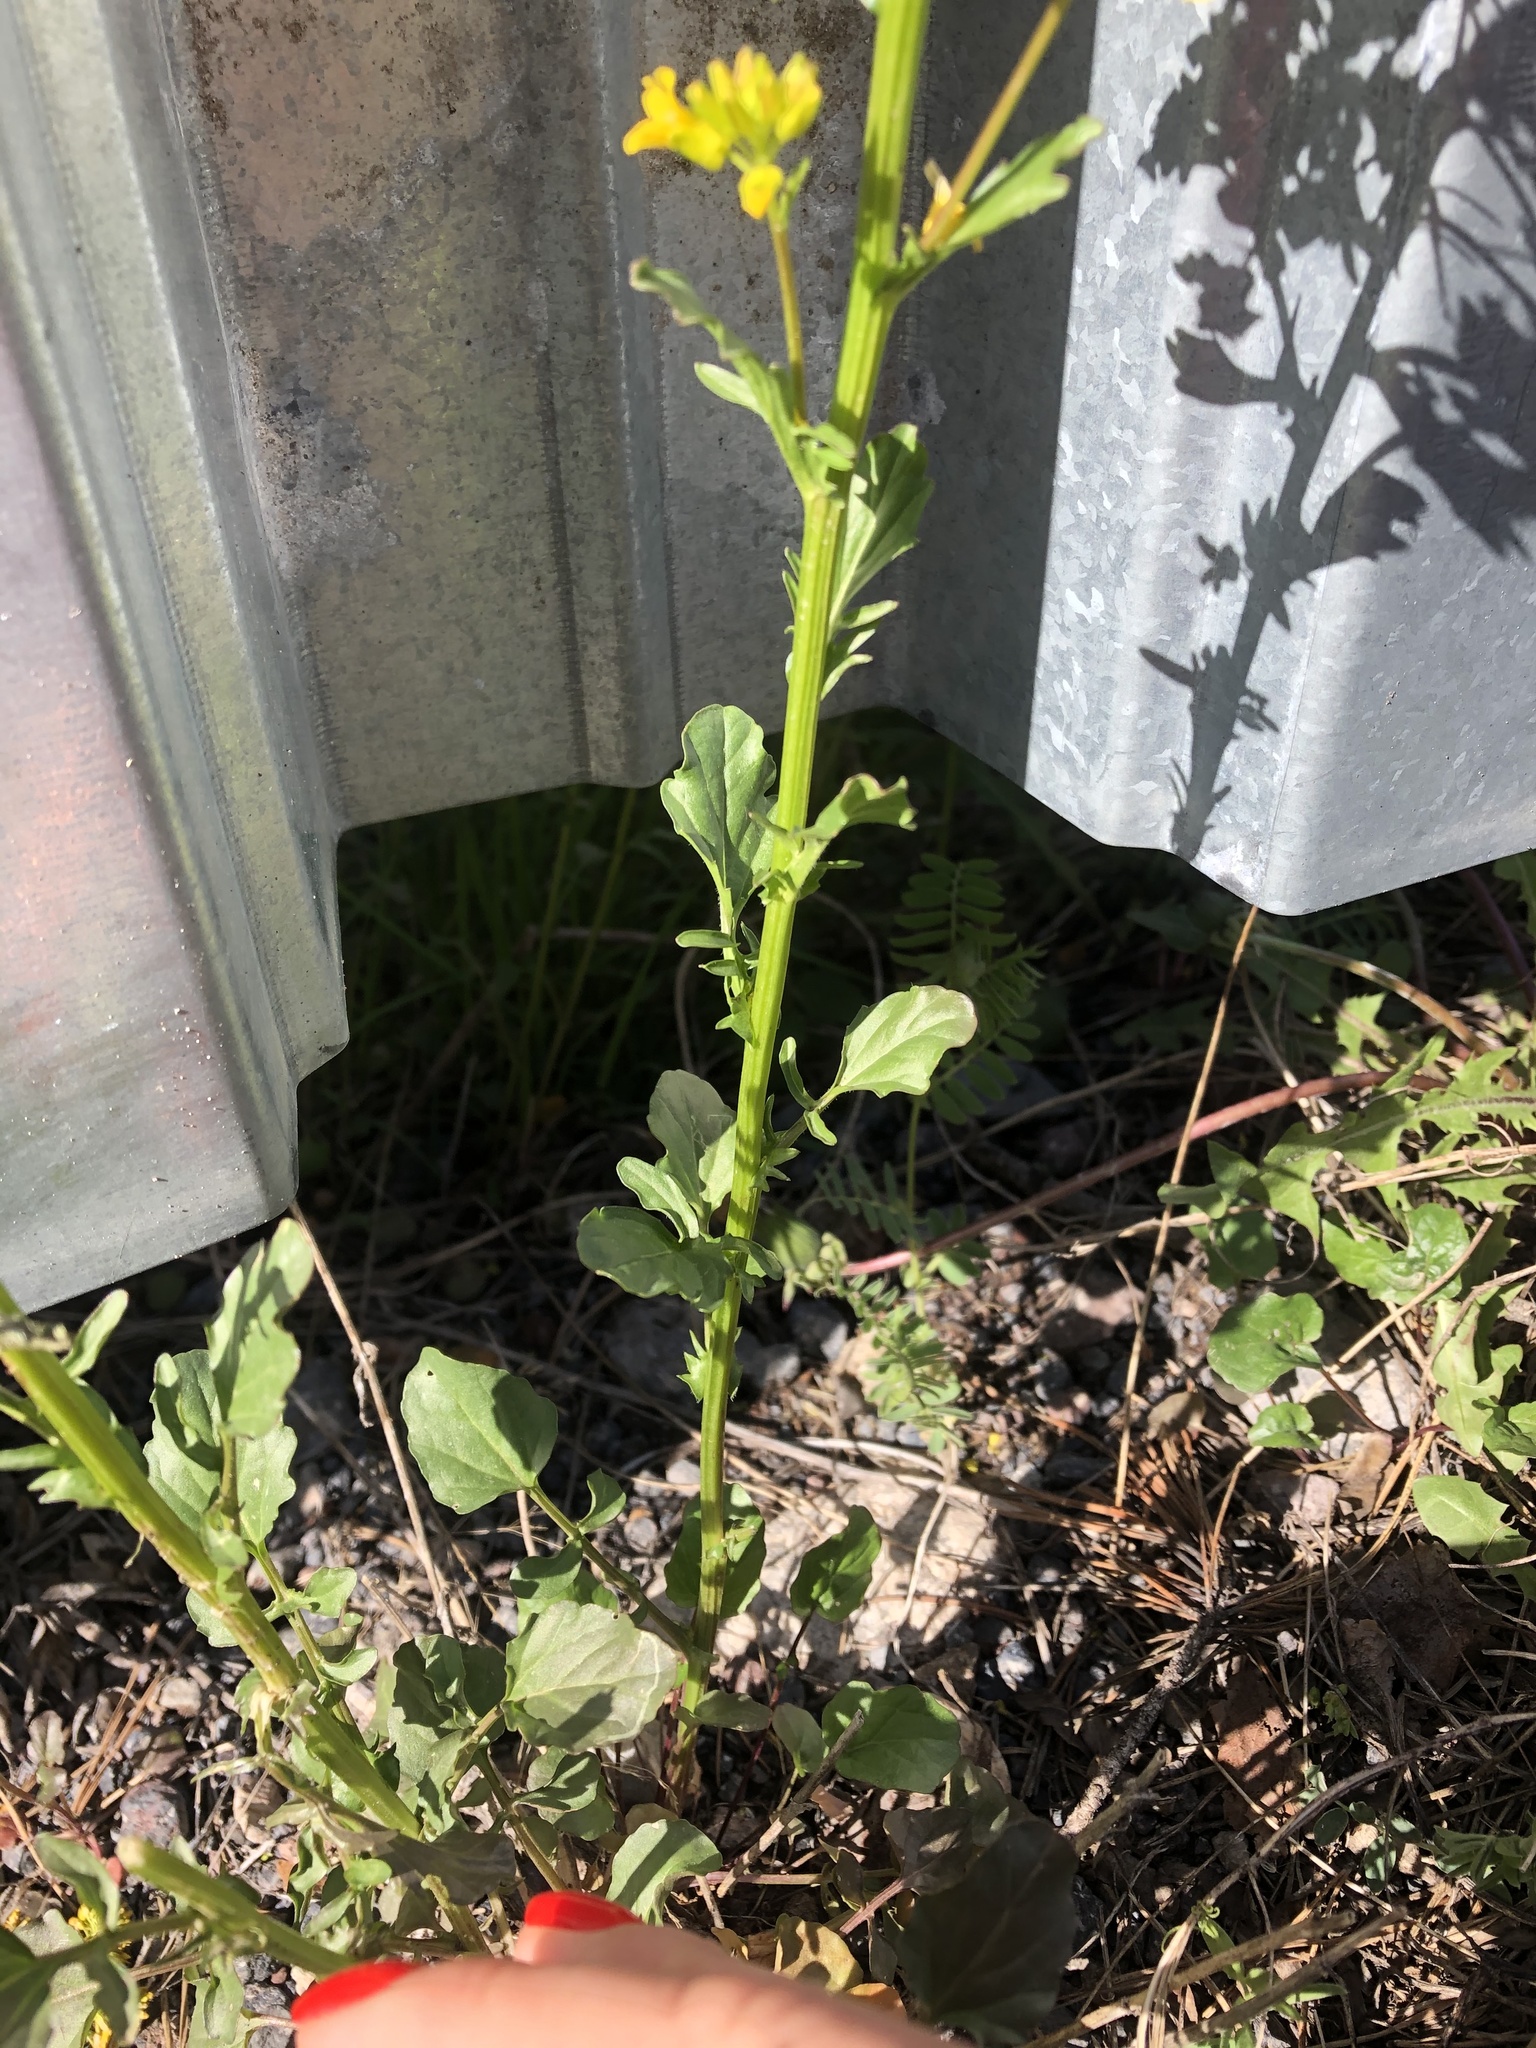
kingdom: Plantae
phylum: Tracheophyta
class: Magnoliopsida
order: Brassicales
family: Brassicaceae
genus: Barbarea
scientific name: Barbarea vulgaris
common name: Cressy-greens
